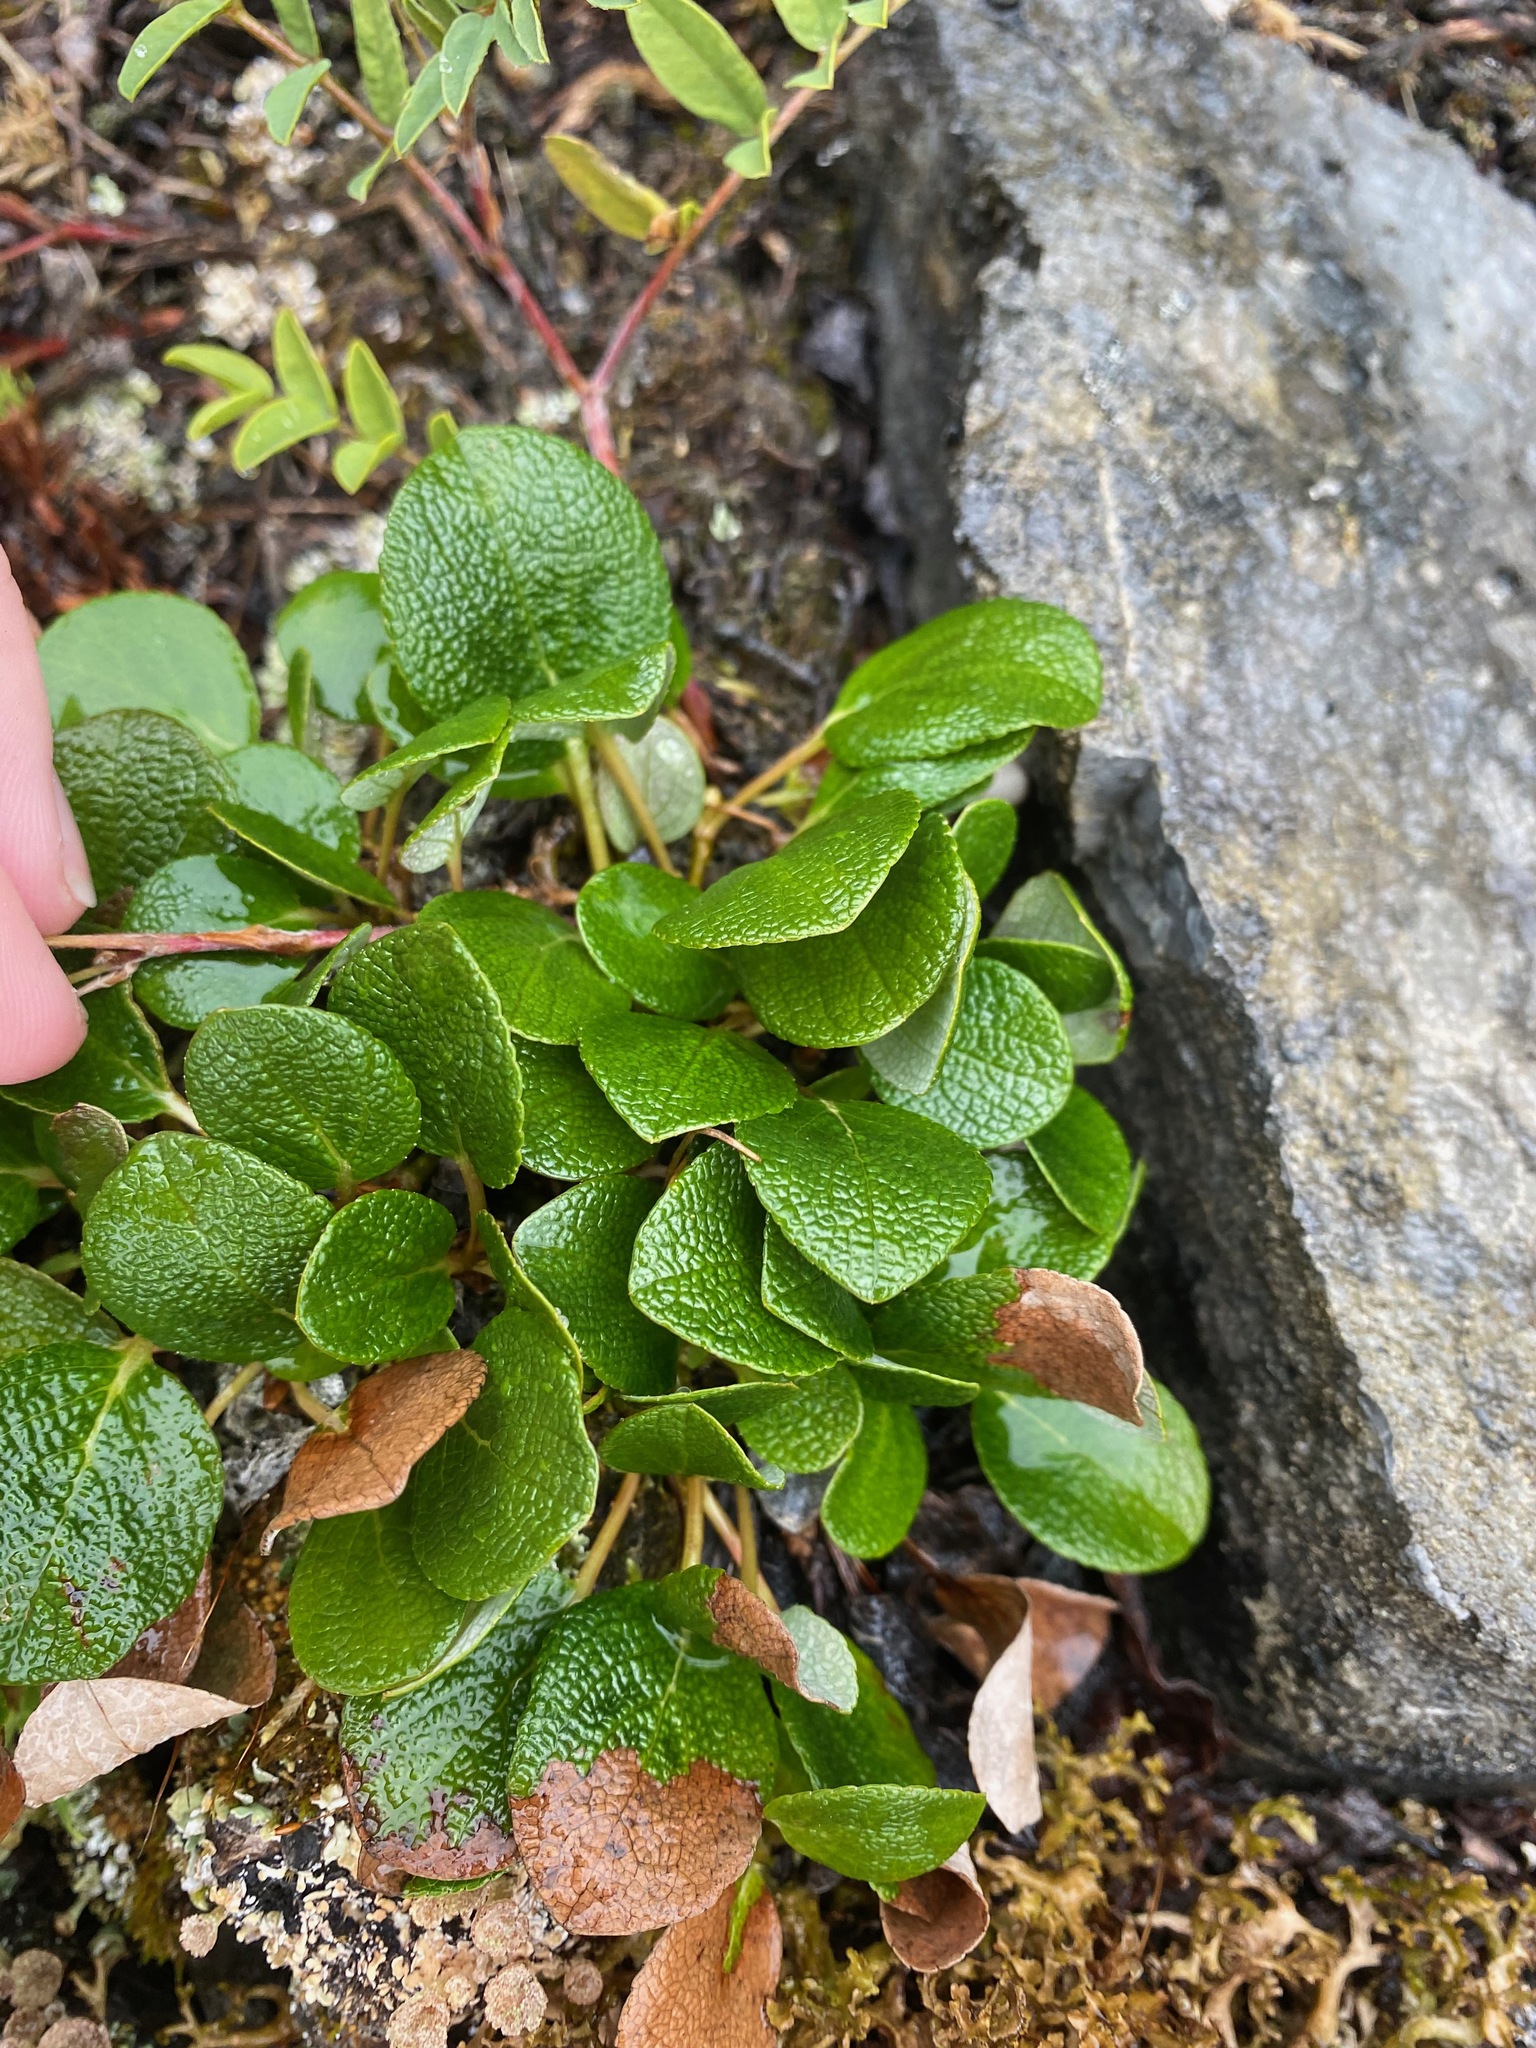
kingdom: Plantae
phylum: Tracheophyta
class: Magnoliopsida
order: Malpighiales
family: Salicaceae
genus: Salix
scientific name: Salix reticulata
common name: Net-leaved willow
